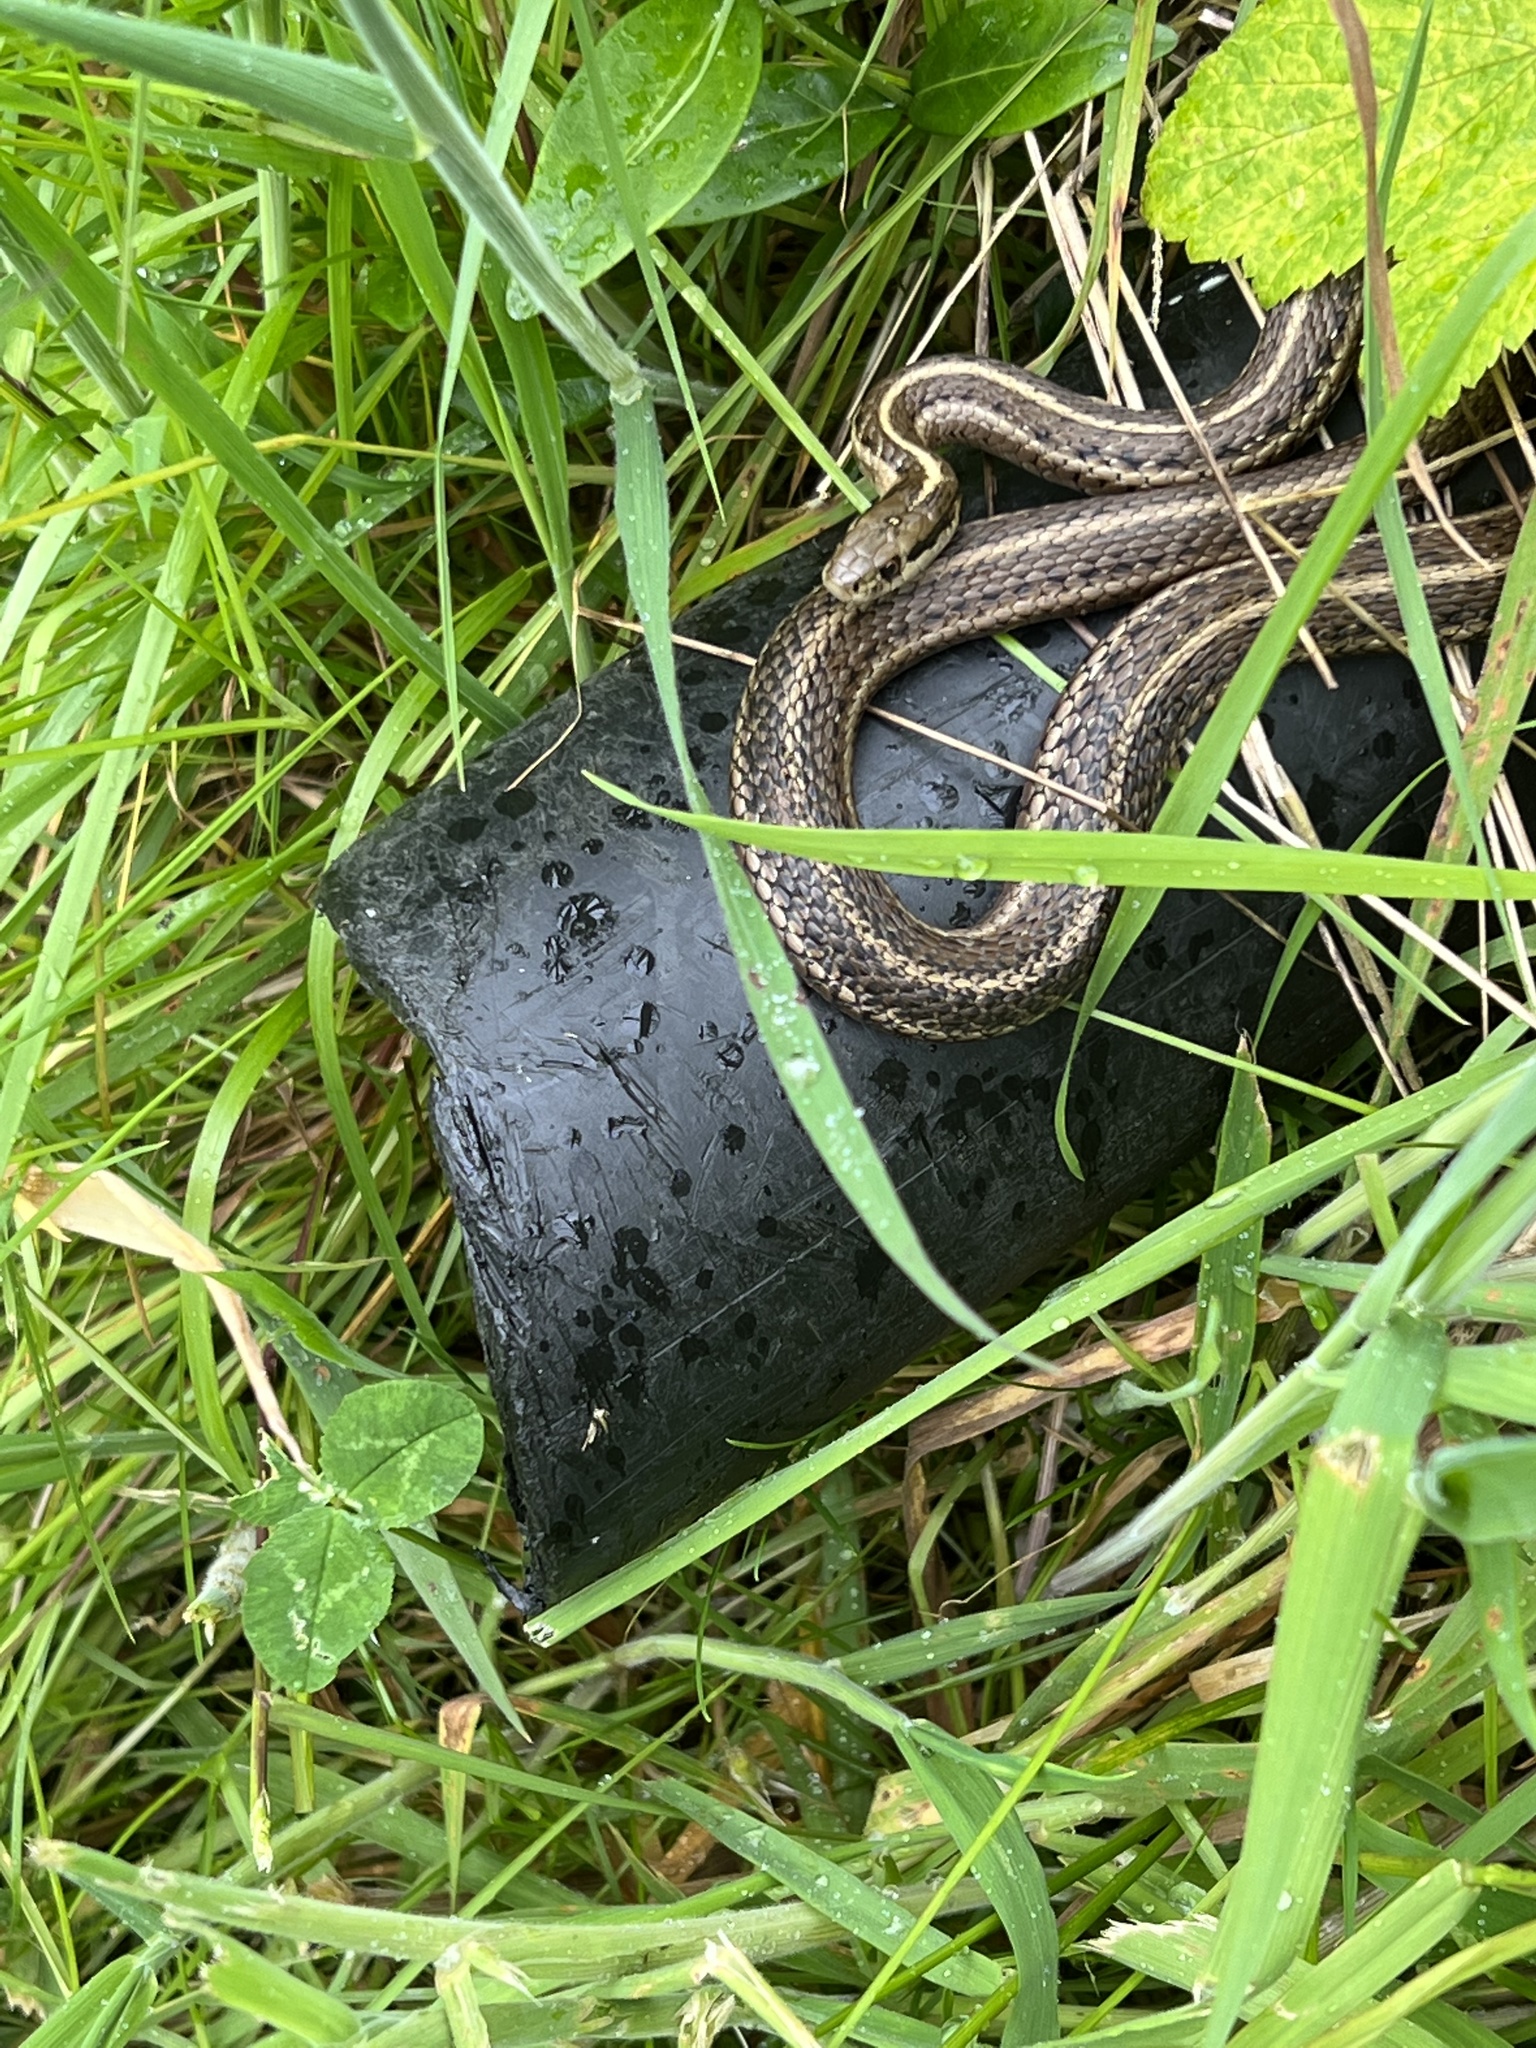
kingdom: Animalia
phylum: Chordata
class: Squamata
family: Colubridae
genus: Thamnophis
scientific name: Thamnophis ordinoides
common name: Northwestern garter snake
